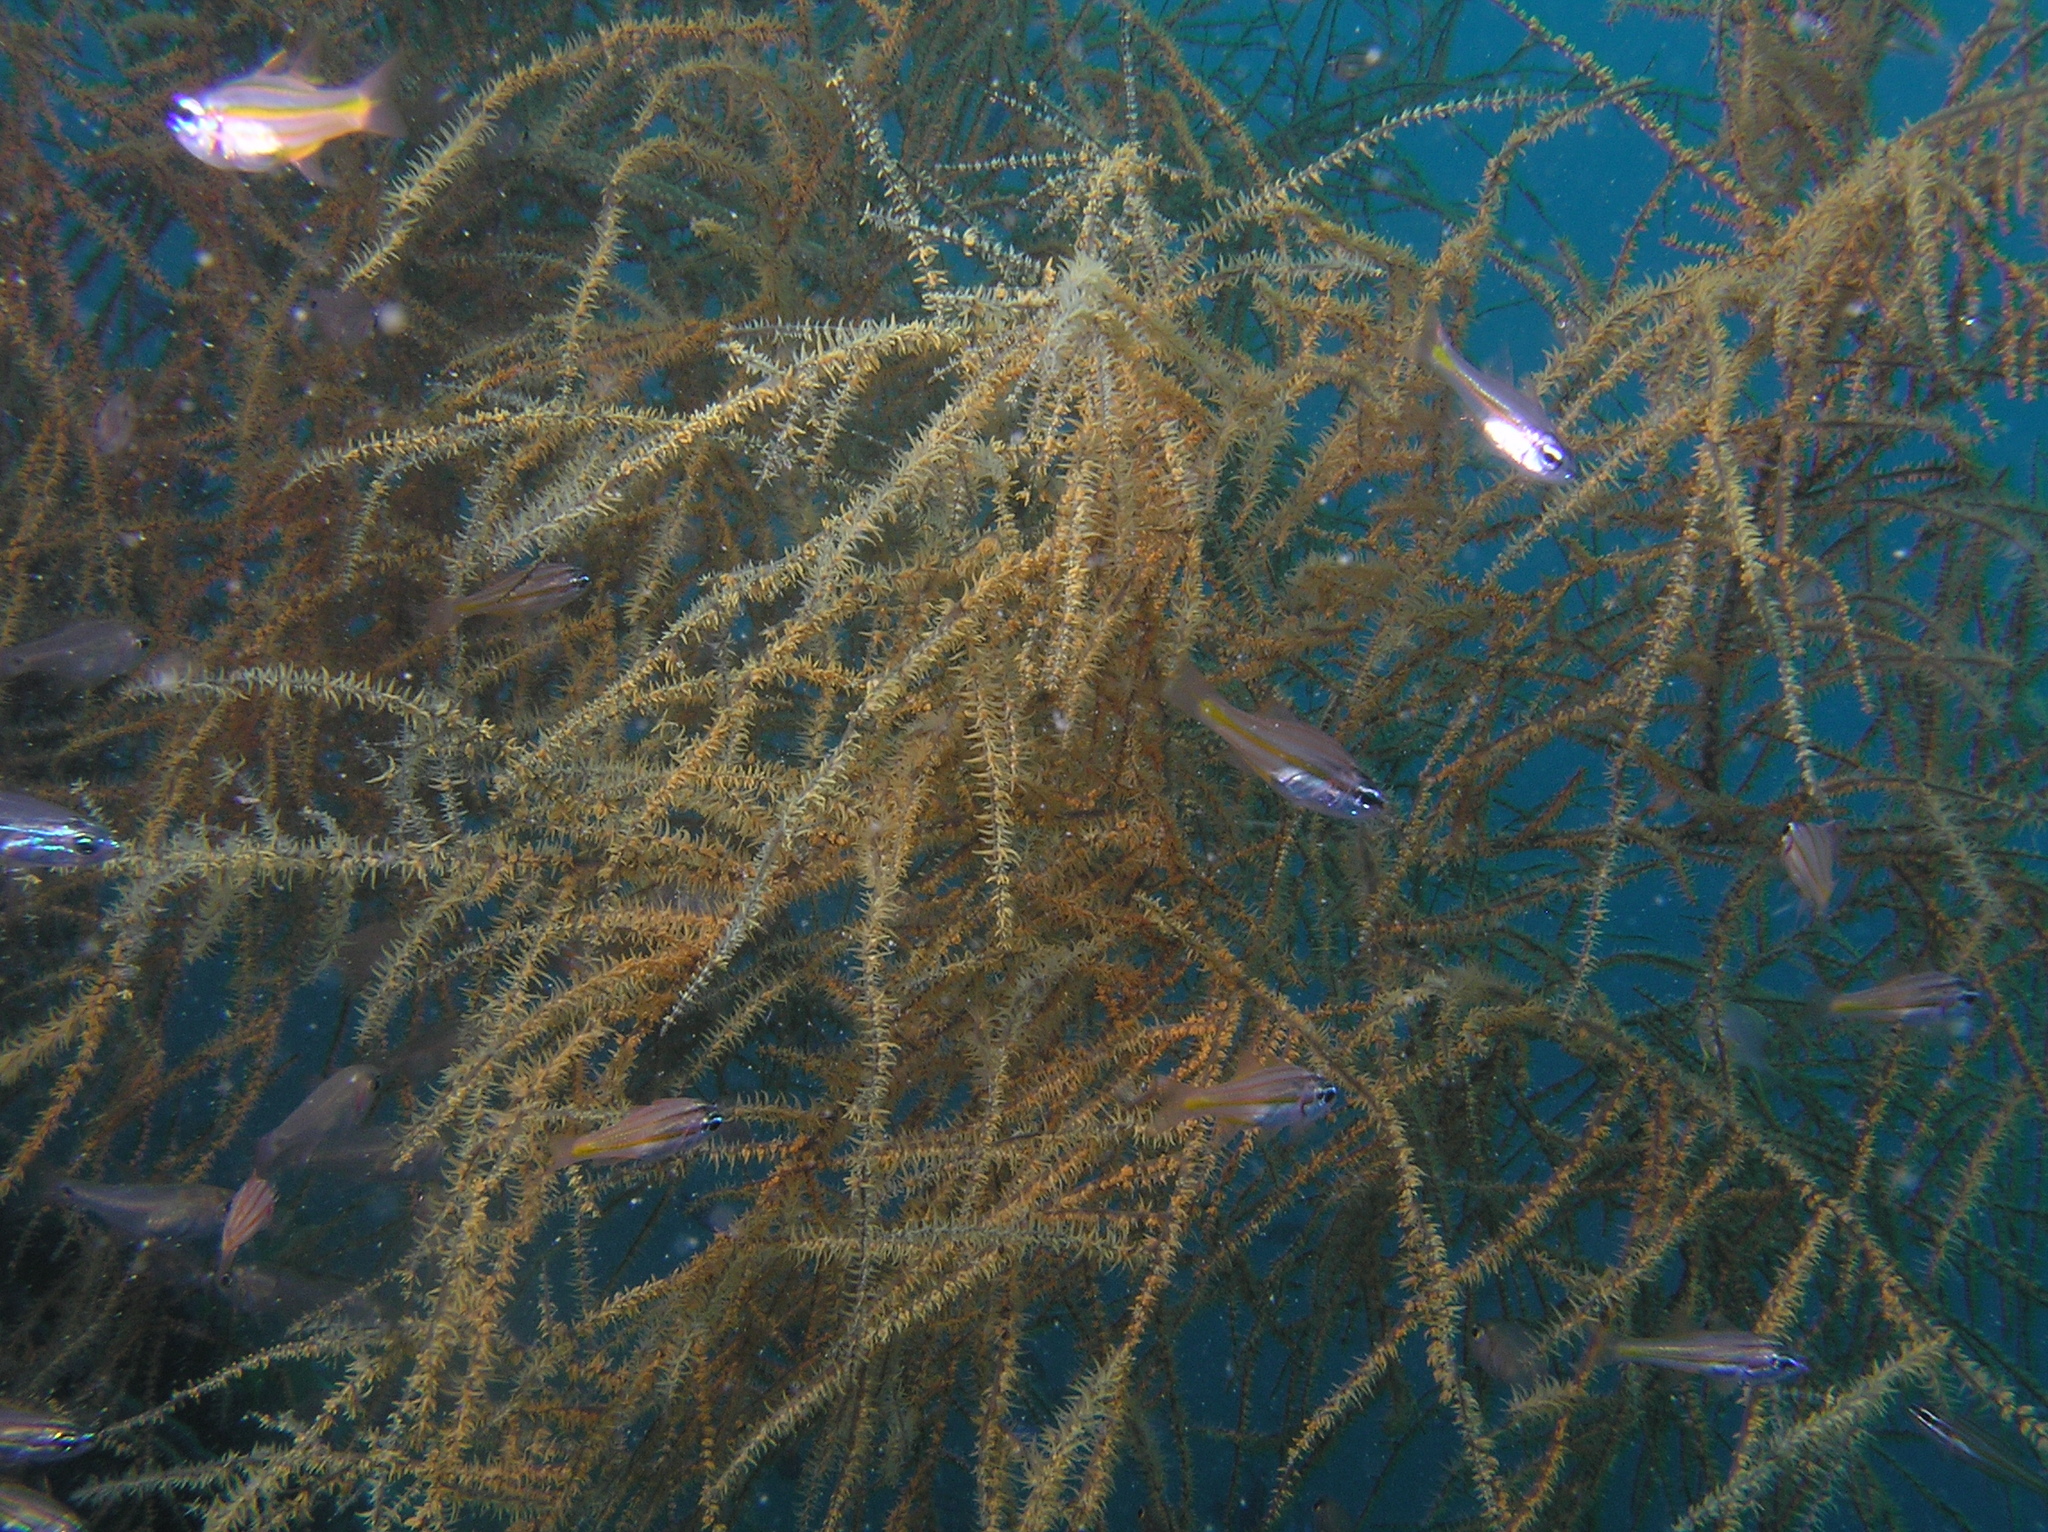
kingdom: Animalia
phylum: Chordata
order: Perciformes
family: Apogonidae
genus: Ostorhinchus
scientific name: Ostorhinchus cyanosoma
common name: Yellow-striped cardinalfish
